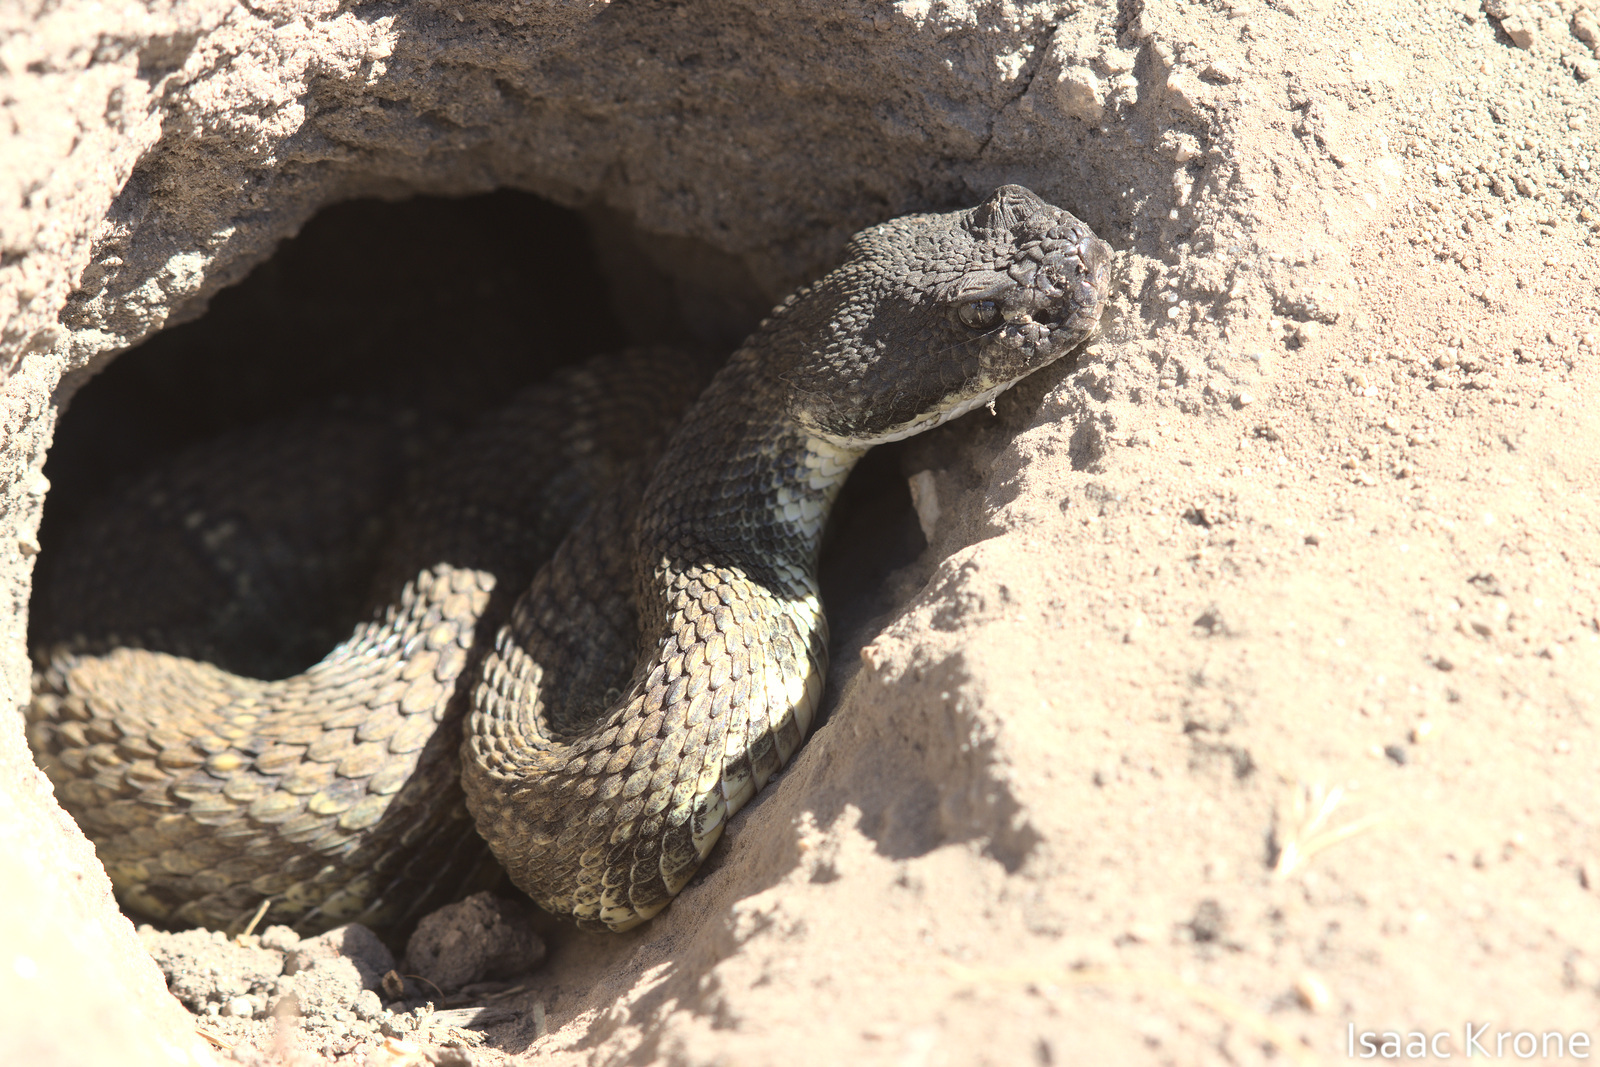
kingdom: Animalia
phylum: Chordata
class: Squamata
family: Viperidae
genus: Crotalus
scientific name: Crotalus oreganus
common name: Abyssus
